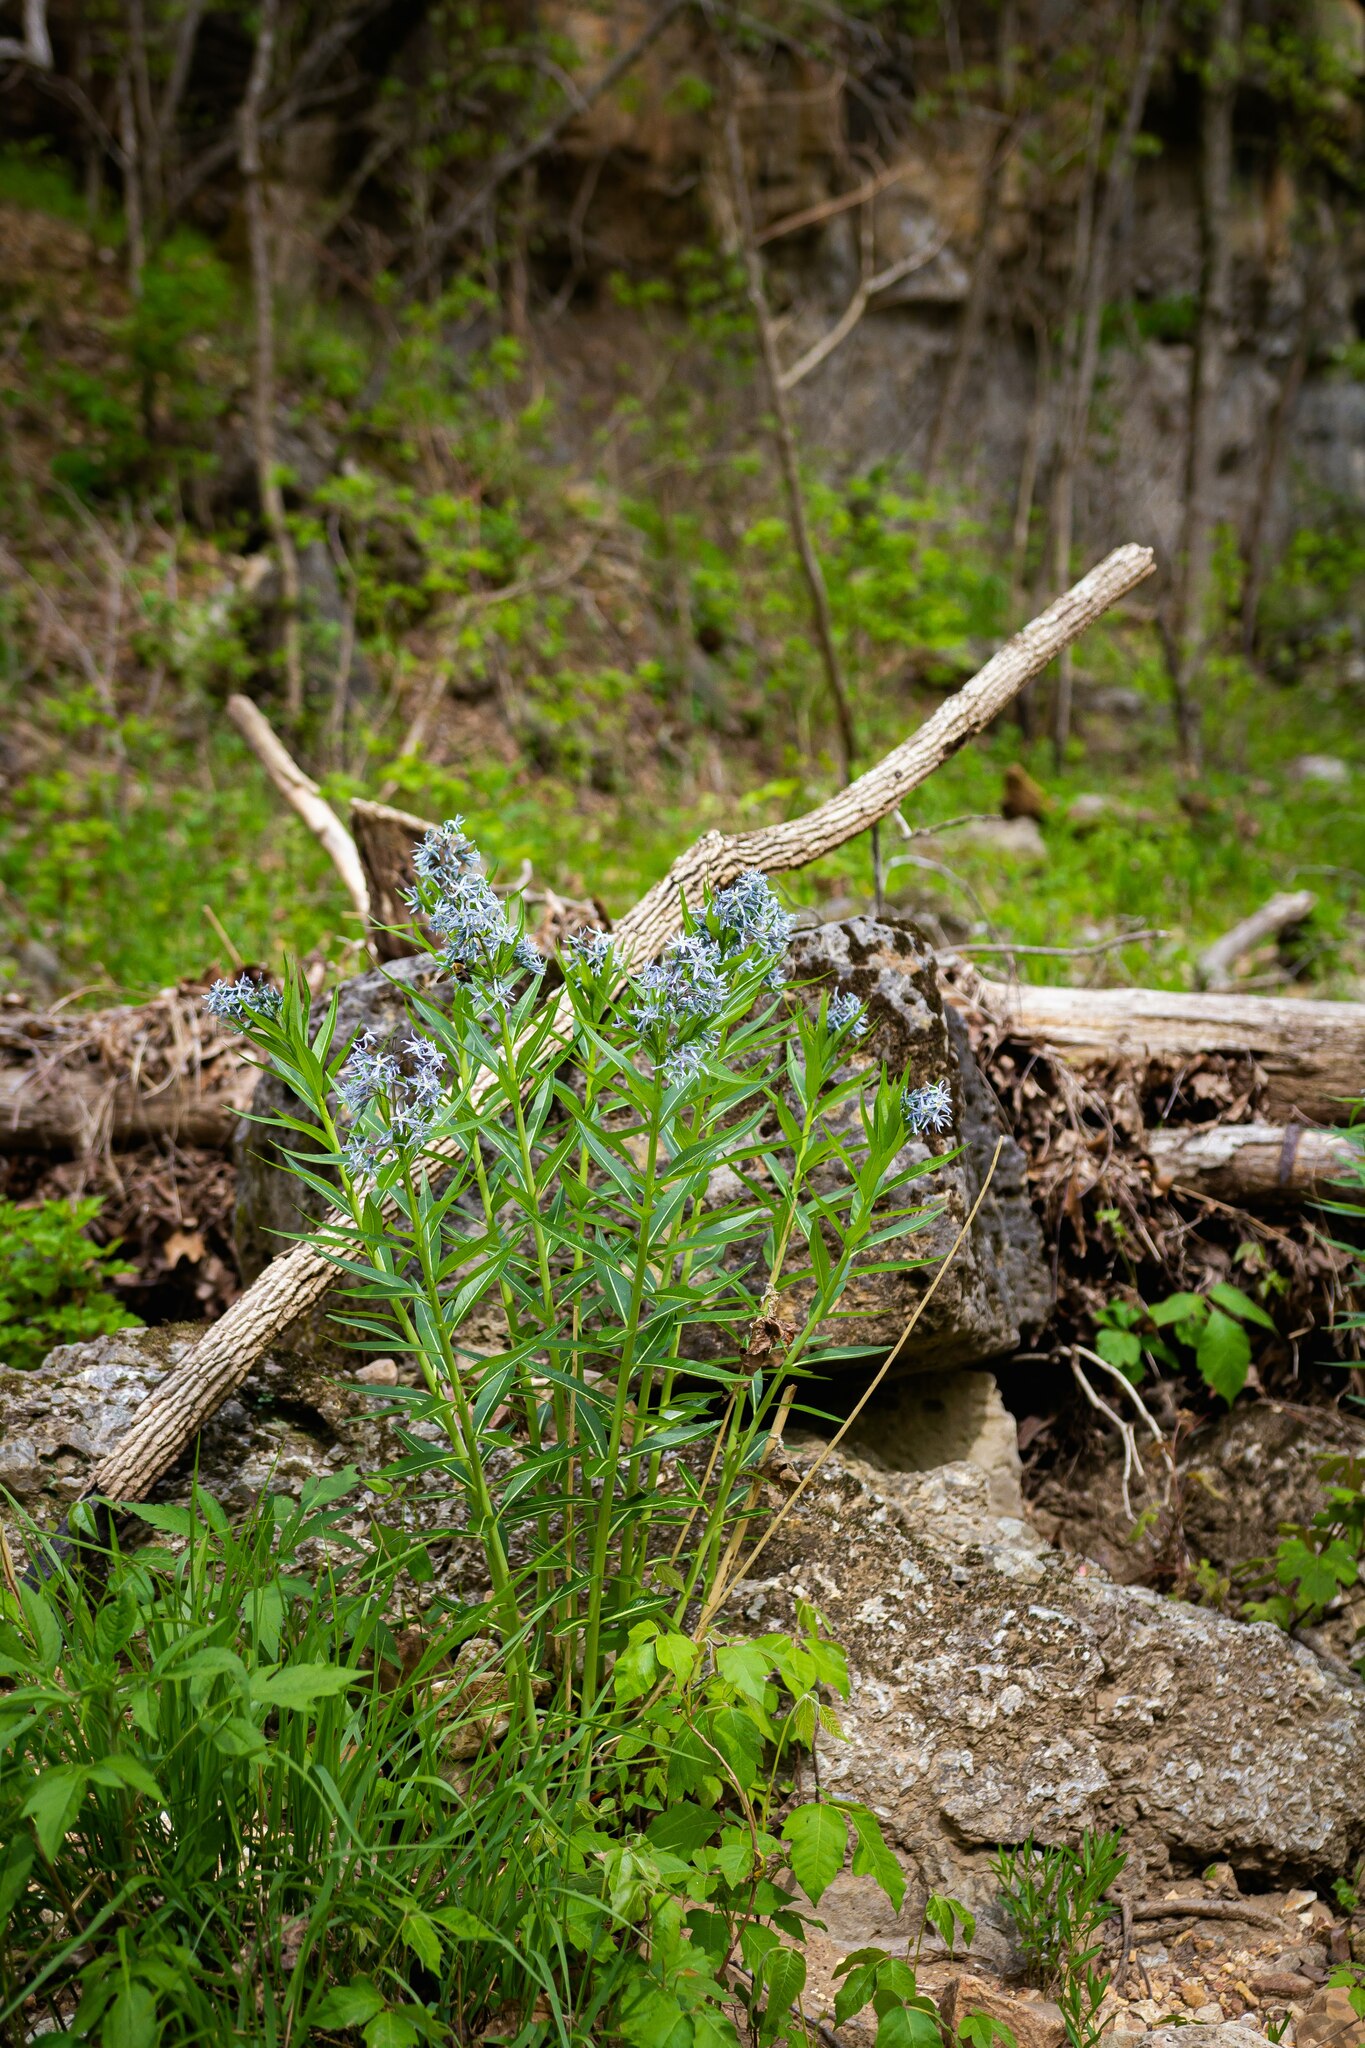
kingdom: Plantae
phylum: Tracheophyta
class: Magnoliopsida
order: Gentianales
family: Apocynaceae
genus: Amsonia
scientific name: Amsonia tabernaemontana
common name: Texas-star
